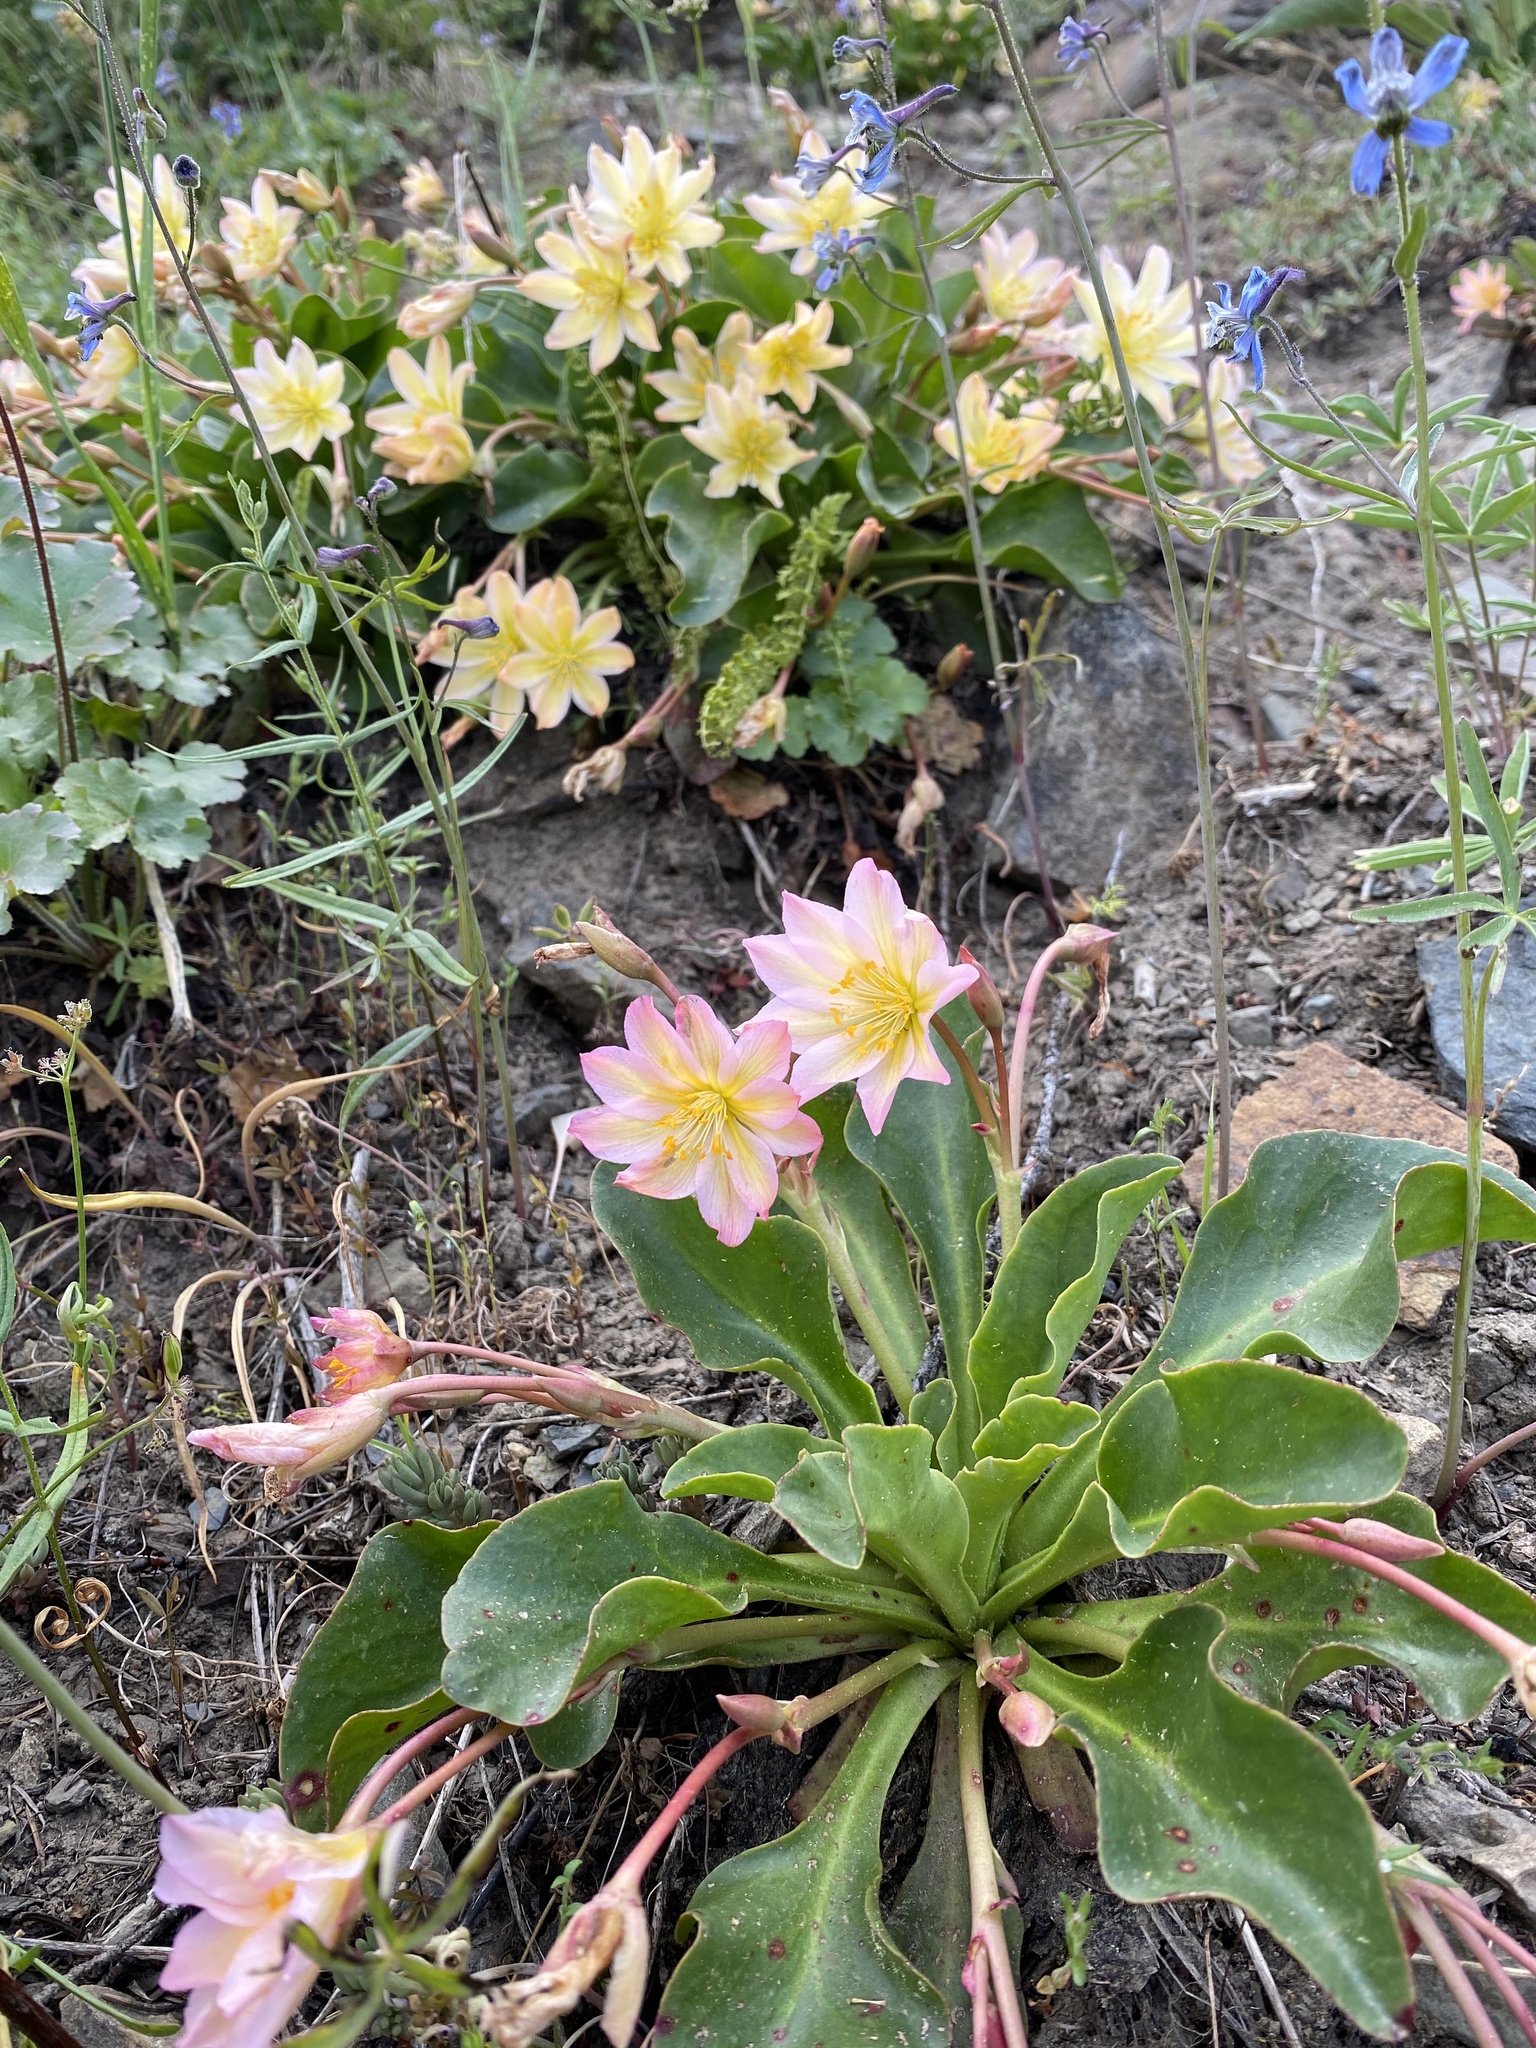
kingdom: Plantae
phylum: Tracheophyta
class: Magnoliopsida
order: Caryophyllales
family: Montiaceae
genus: Lewisiopsis
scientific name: Lewisiopsis tweedyi
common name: Tweedy's pussypaws
